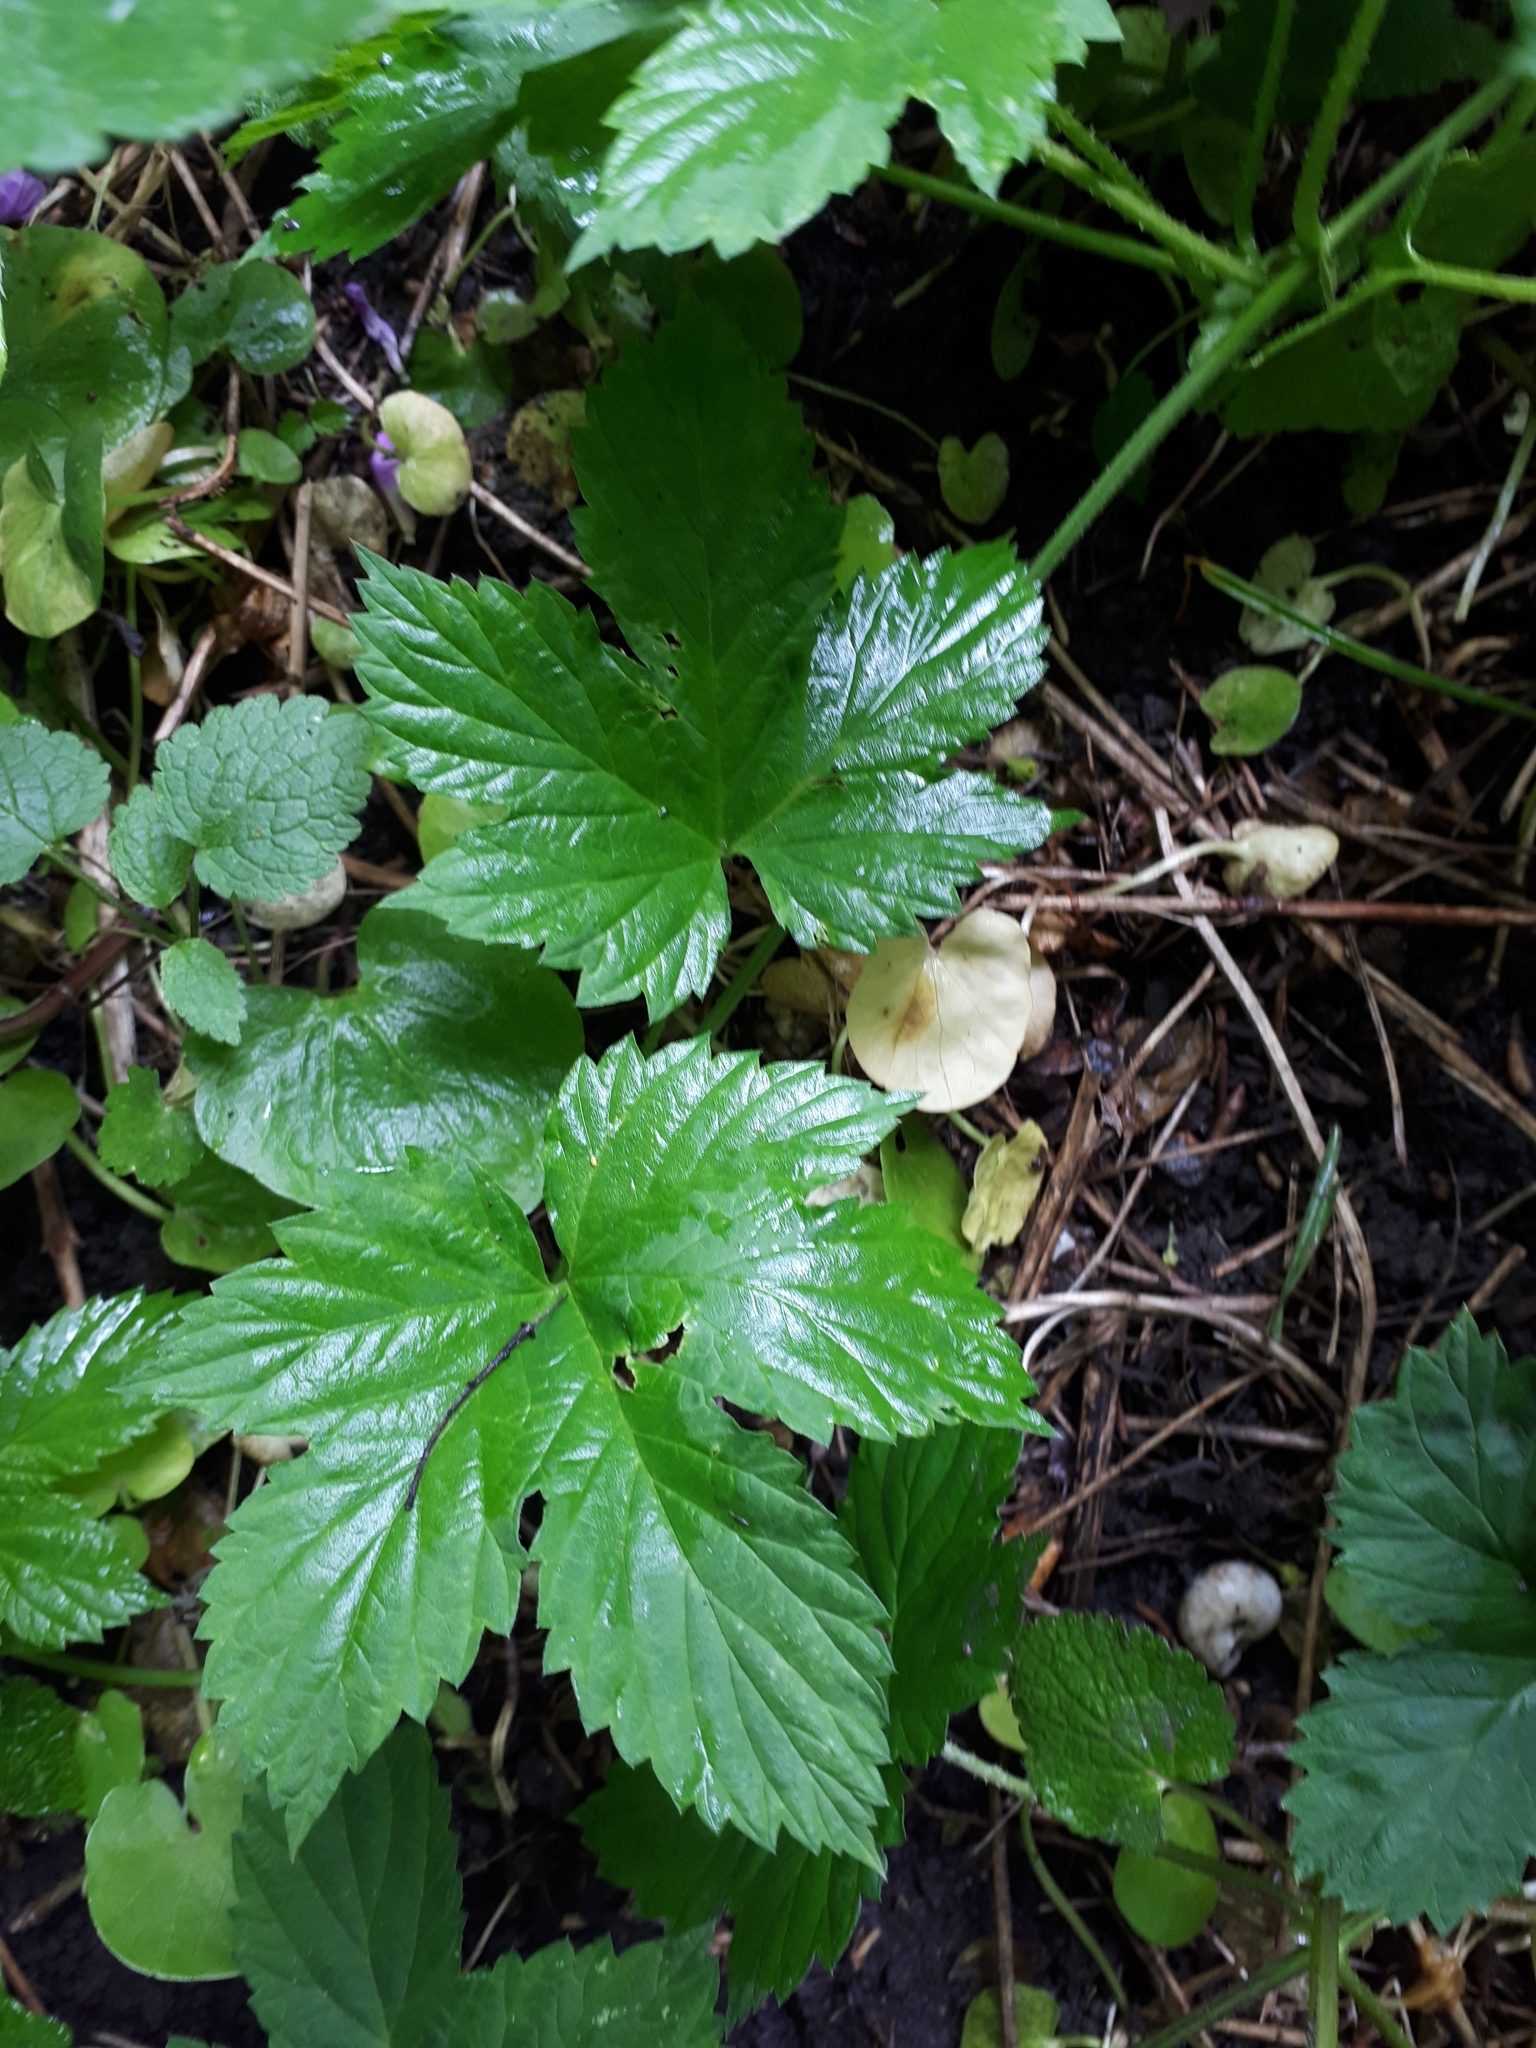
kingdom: Plantae
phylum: Tracheophyta
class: Magnoliopsida
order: Rosales
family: Cannabaceae
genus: Humulus
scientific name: Humulus lupulus
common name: Hop
